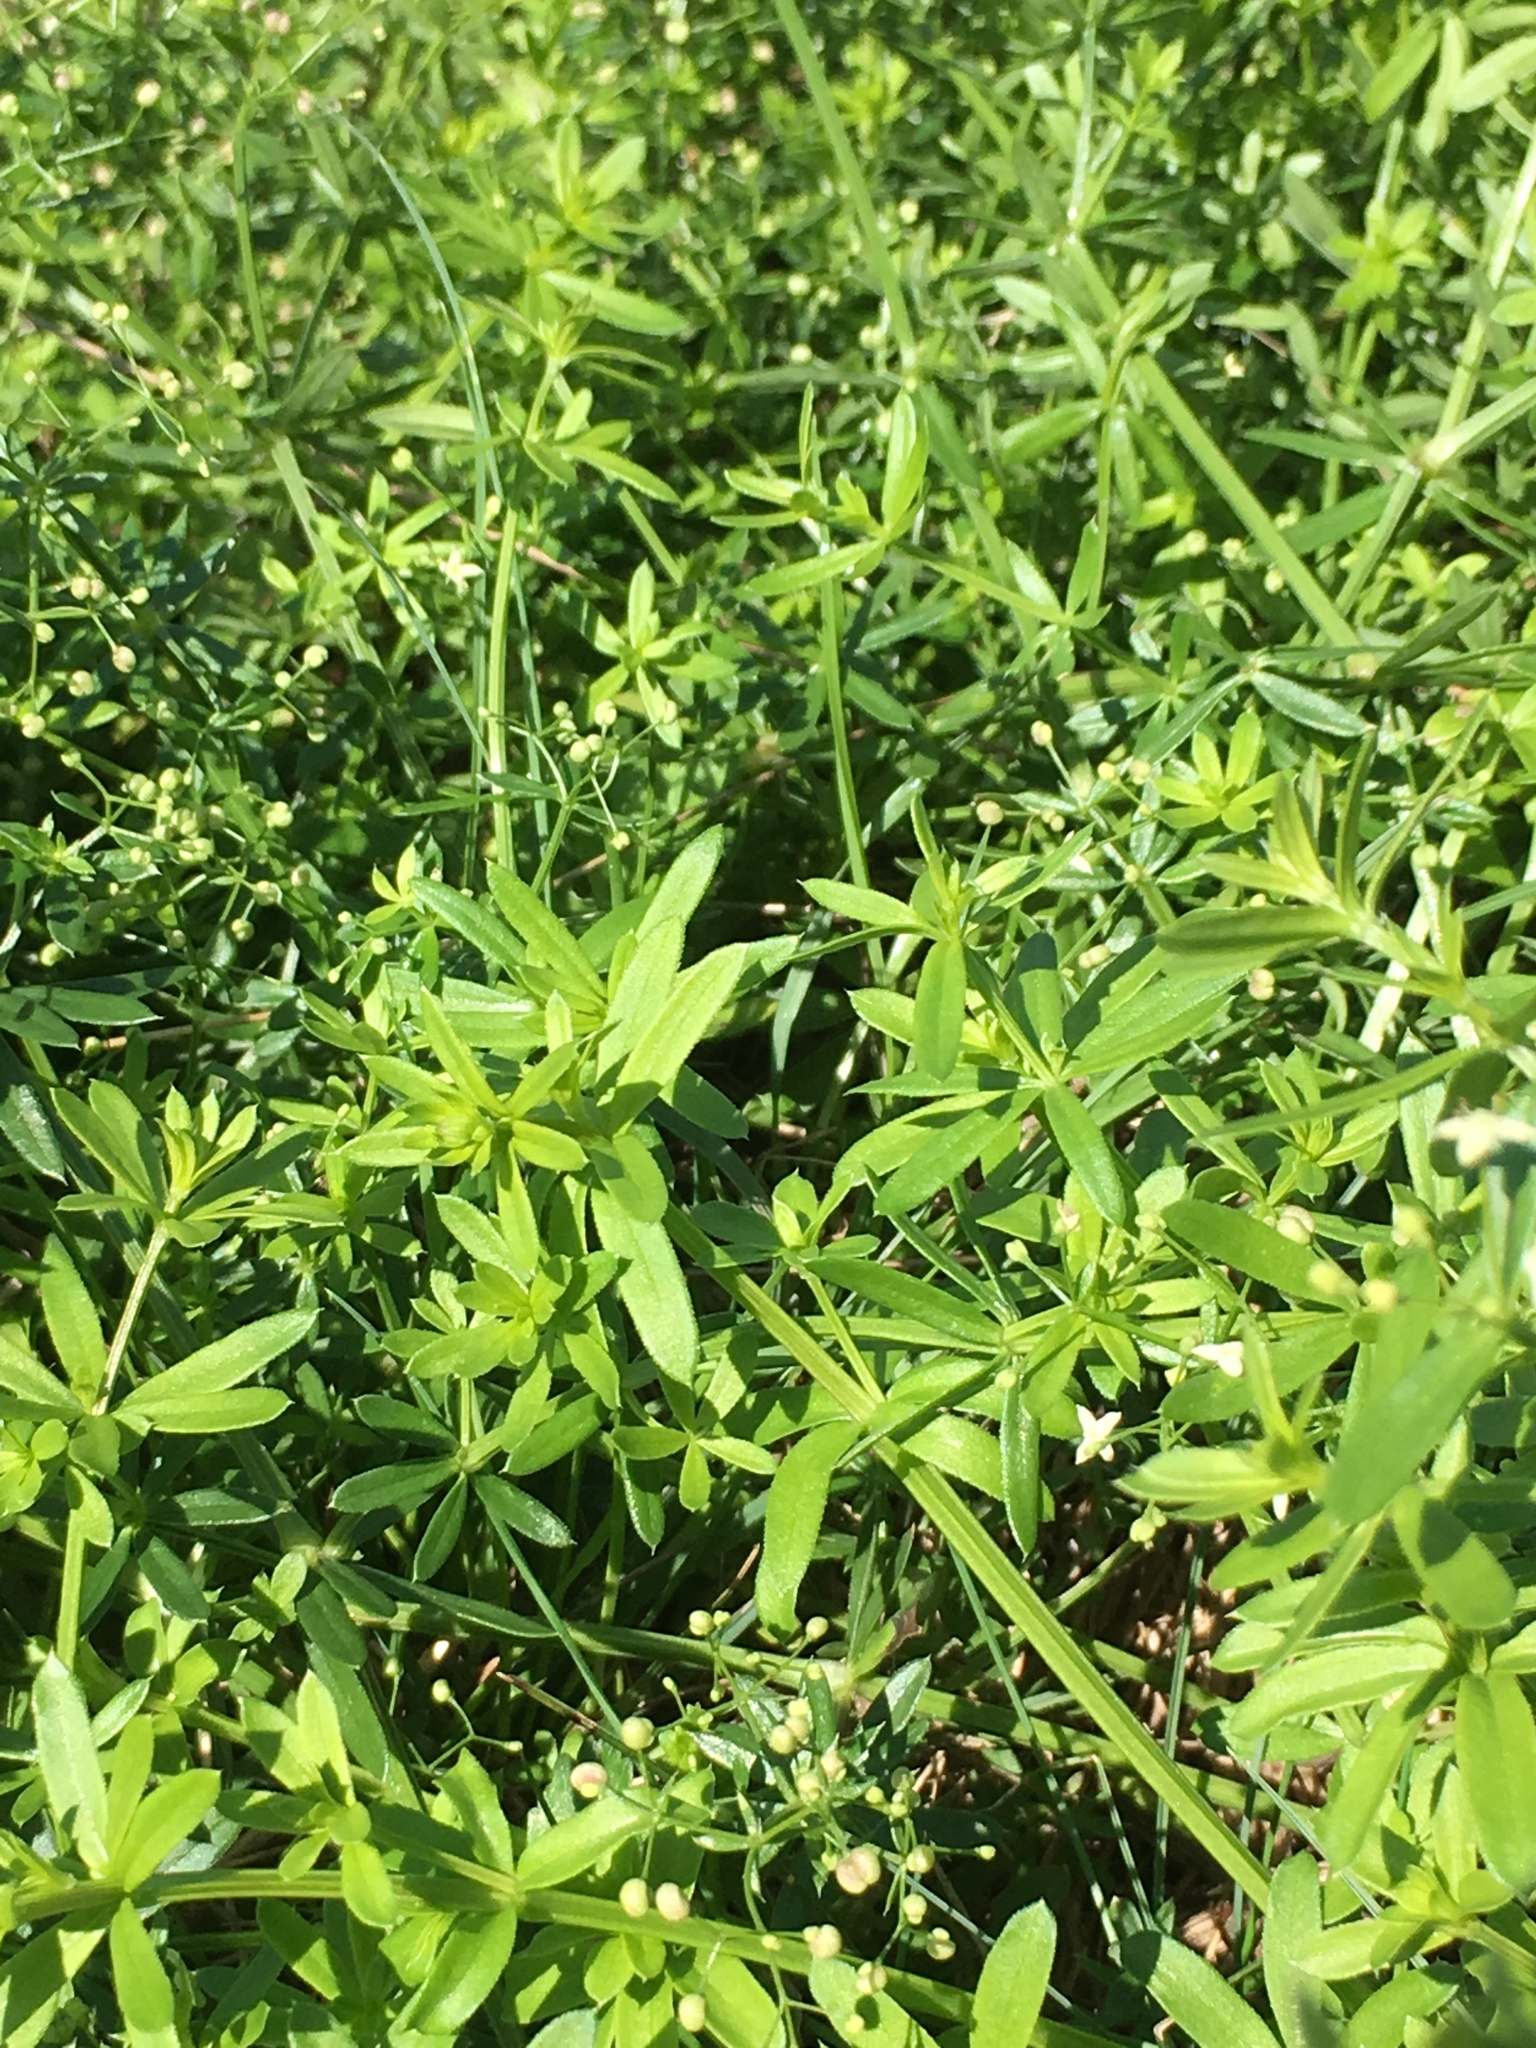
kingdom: Plantae
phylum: Tracheophyta
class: Magnoliopsida
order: Gentianales
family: Rubiaceae
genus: Galium
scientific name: Galium aparine
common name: Cleavers
